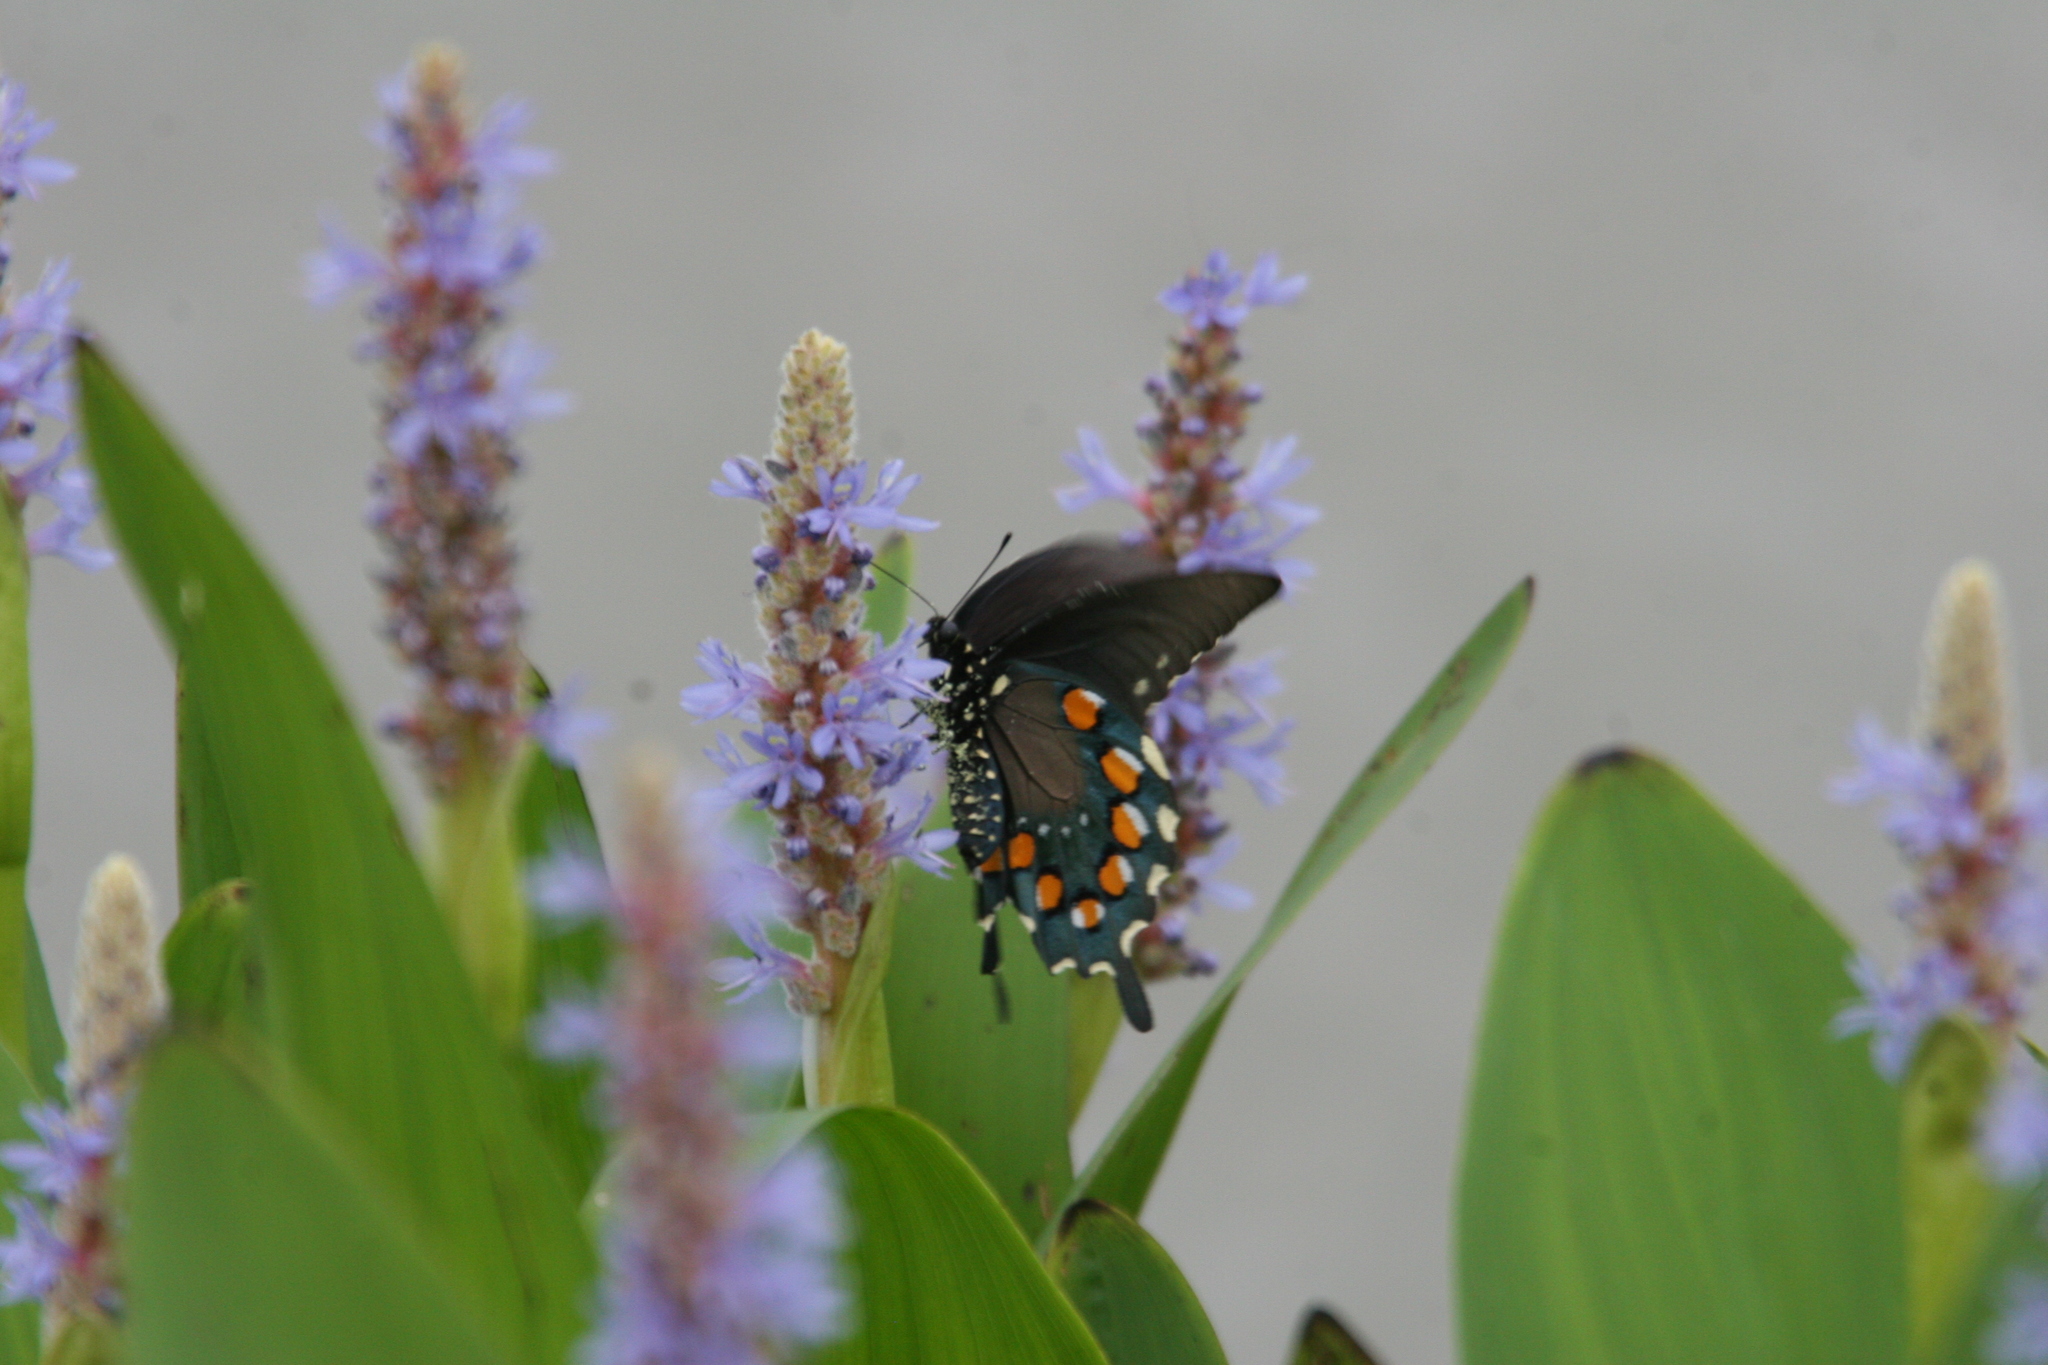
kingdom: Plantae
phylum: Tracheophyta
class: Liliopsida
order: Commelinales
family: Pontederiaceae
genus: Pontederia
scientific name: Pontederia cordata
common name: Pickerelweed
